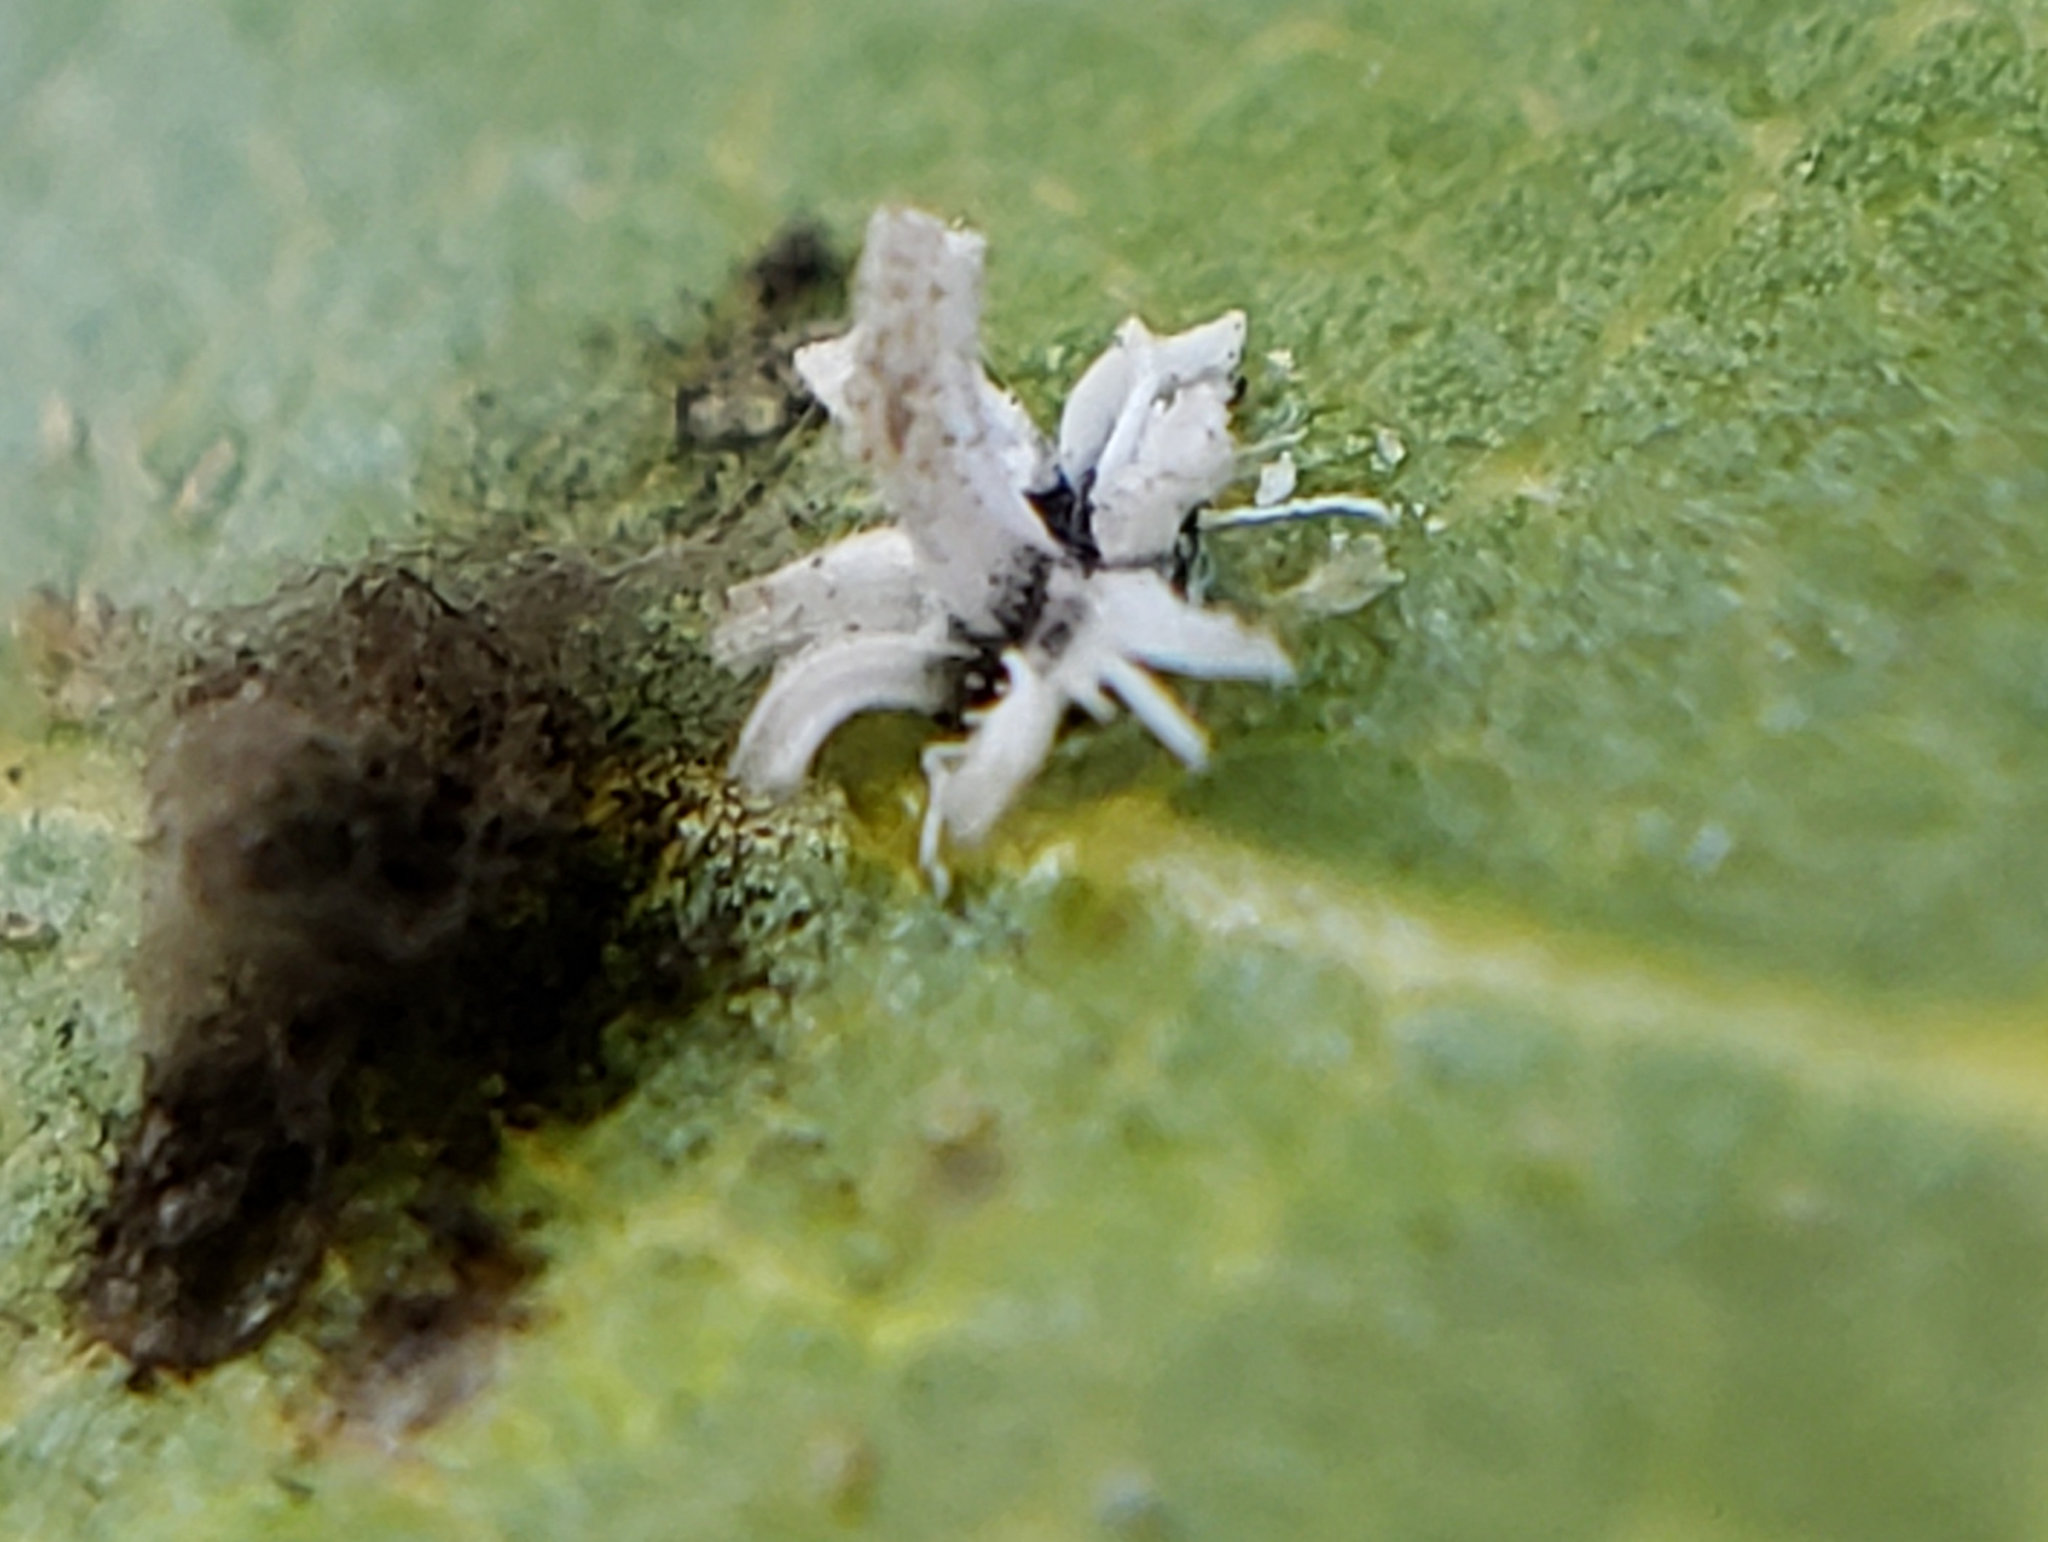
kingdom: Animalia
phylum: Arthropoda
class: Insecta
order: Hemiptera
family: Aleyrodidae
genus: Aleuroplatus
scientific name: Aleuroplatus coronata
